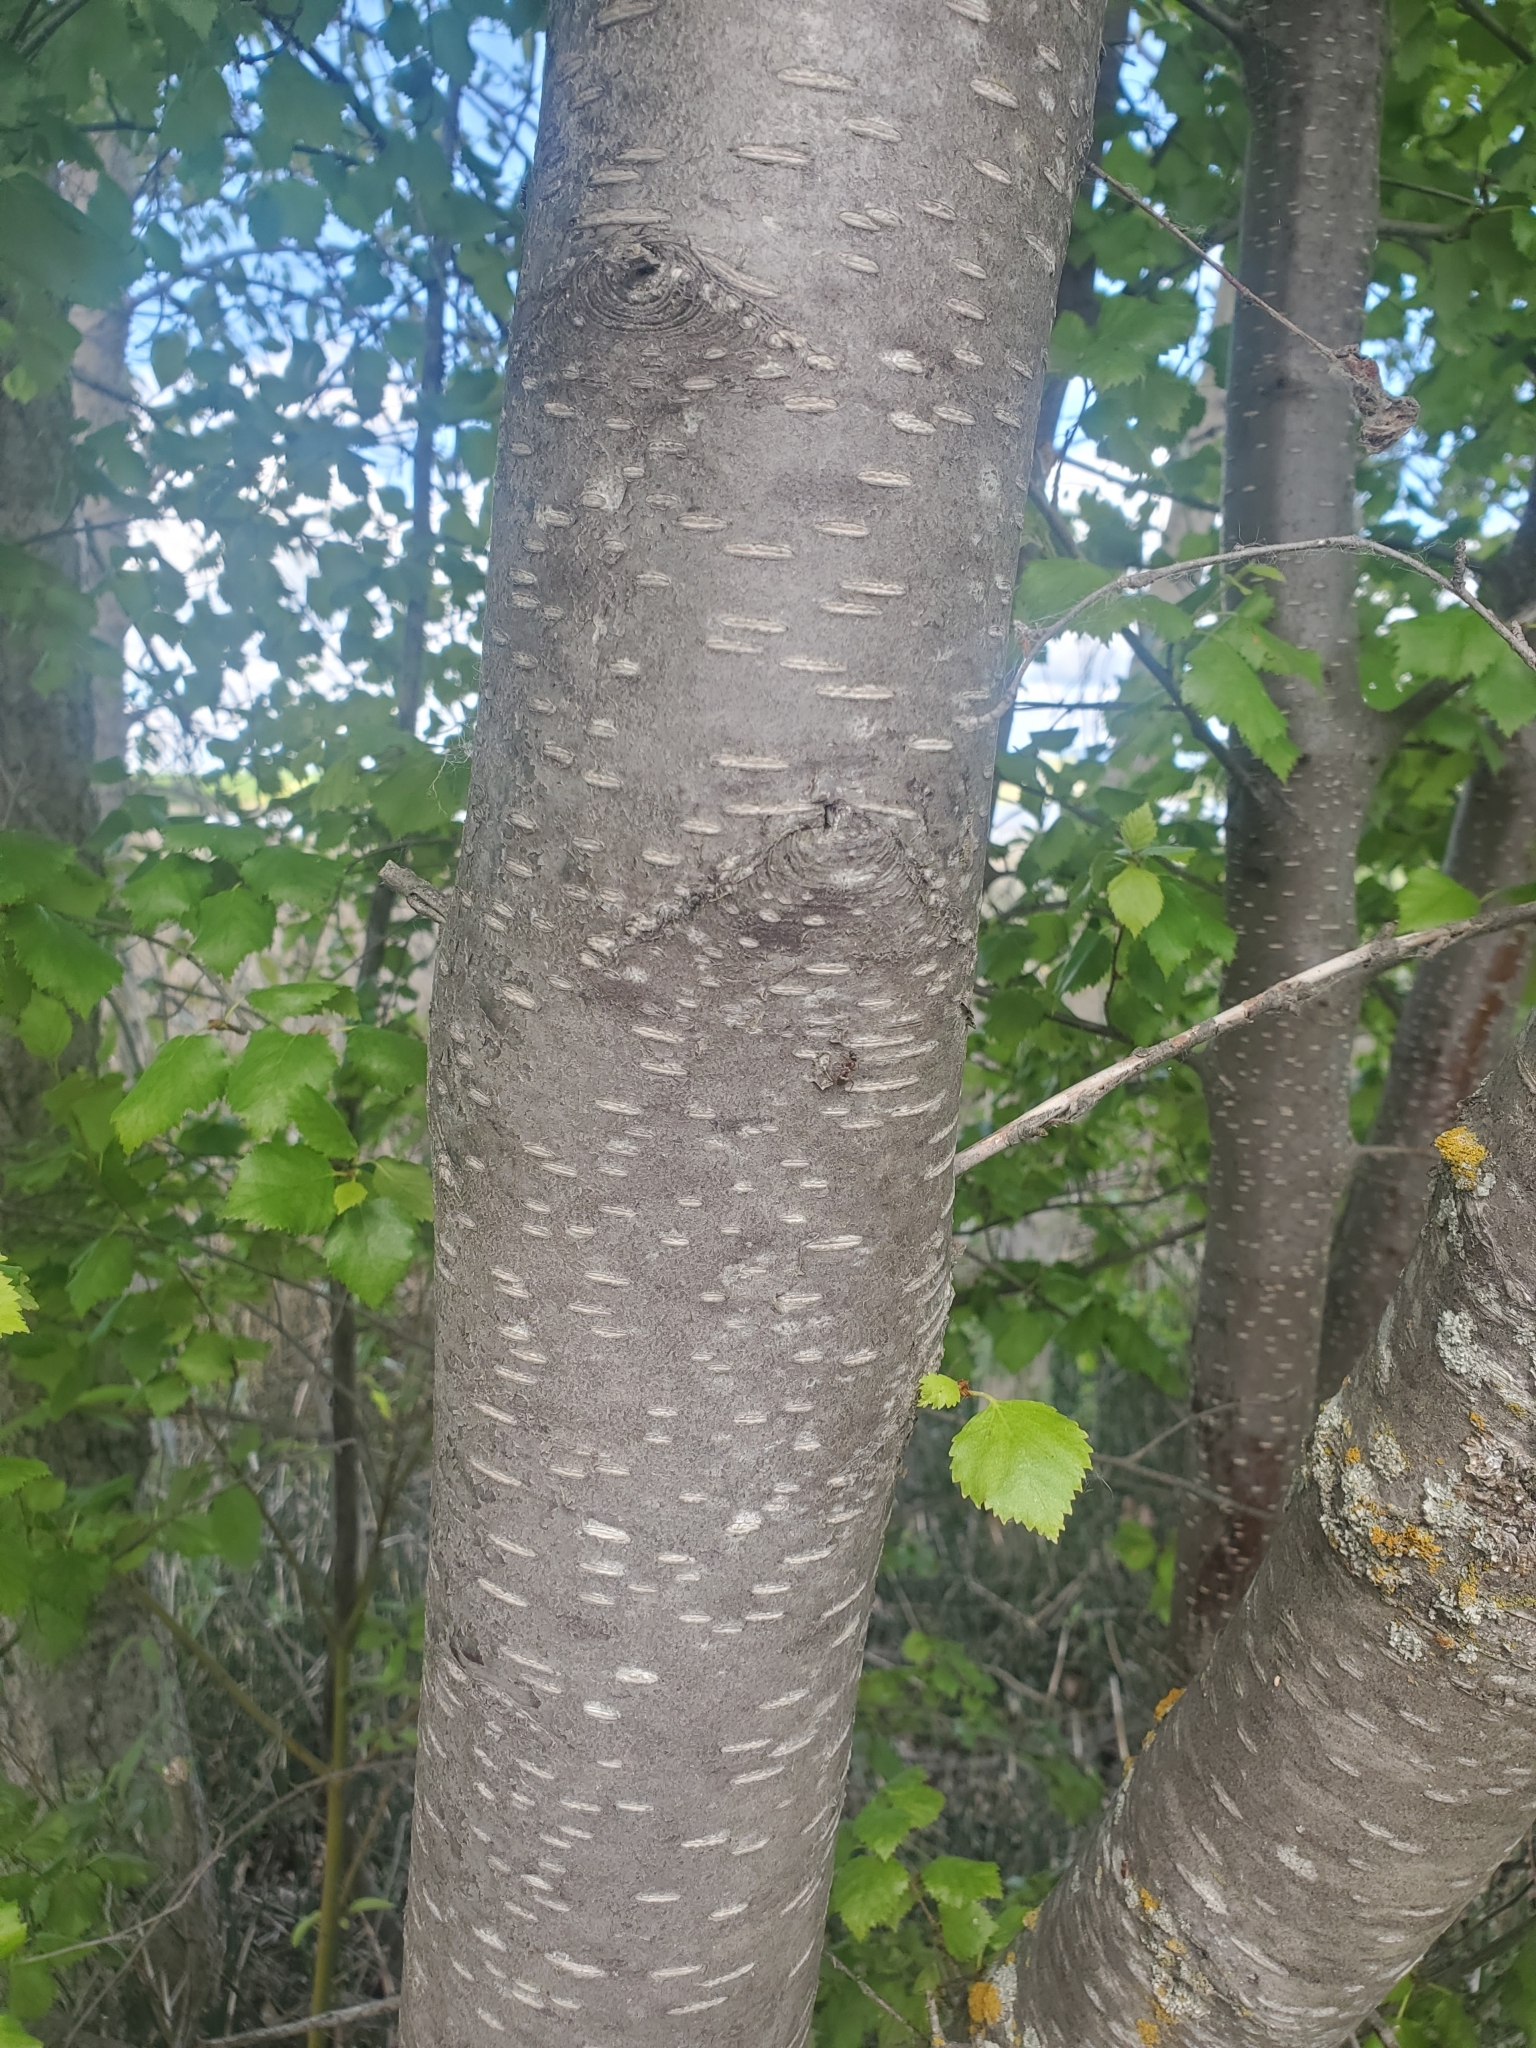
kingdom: Plantae
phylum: Tracheophyta
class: Magnoliopsida
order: Fagales
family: Betulaceae
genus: Betula
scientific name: Betula occidentalis
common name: River birch
